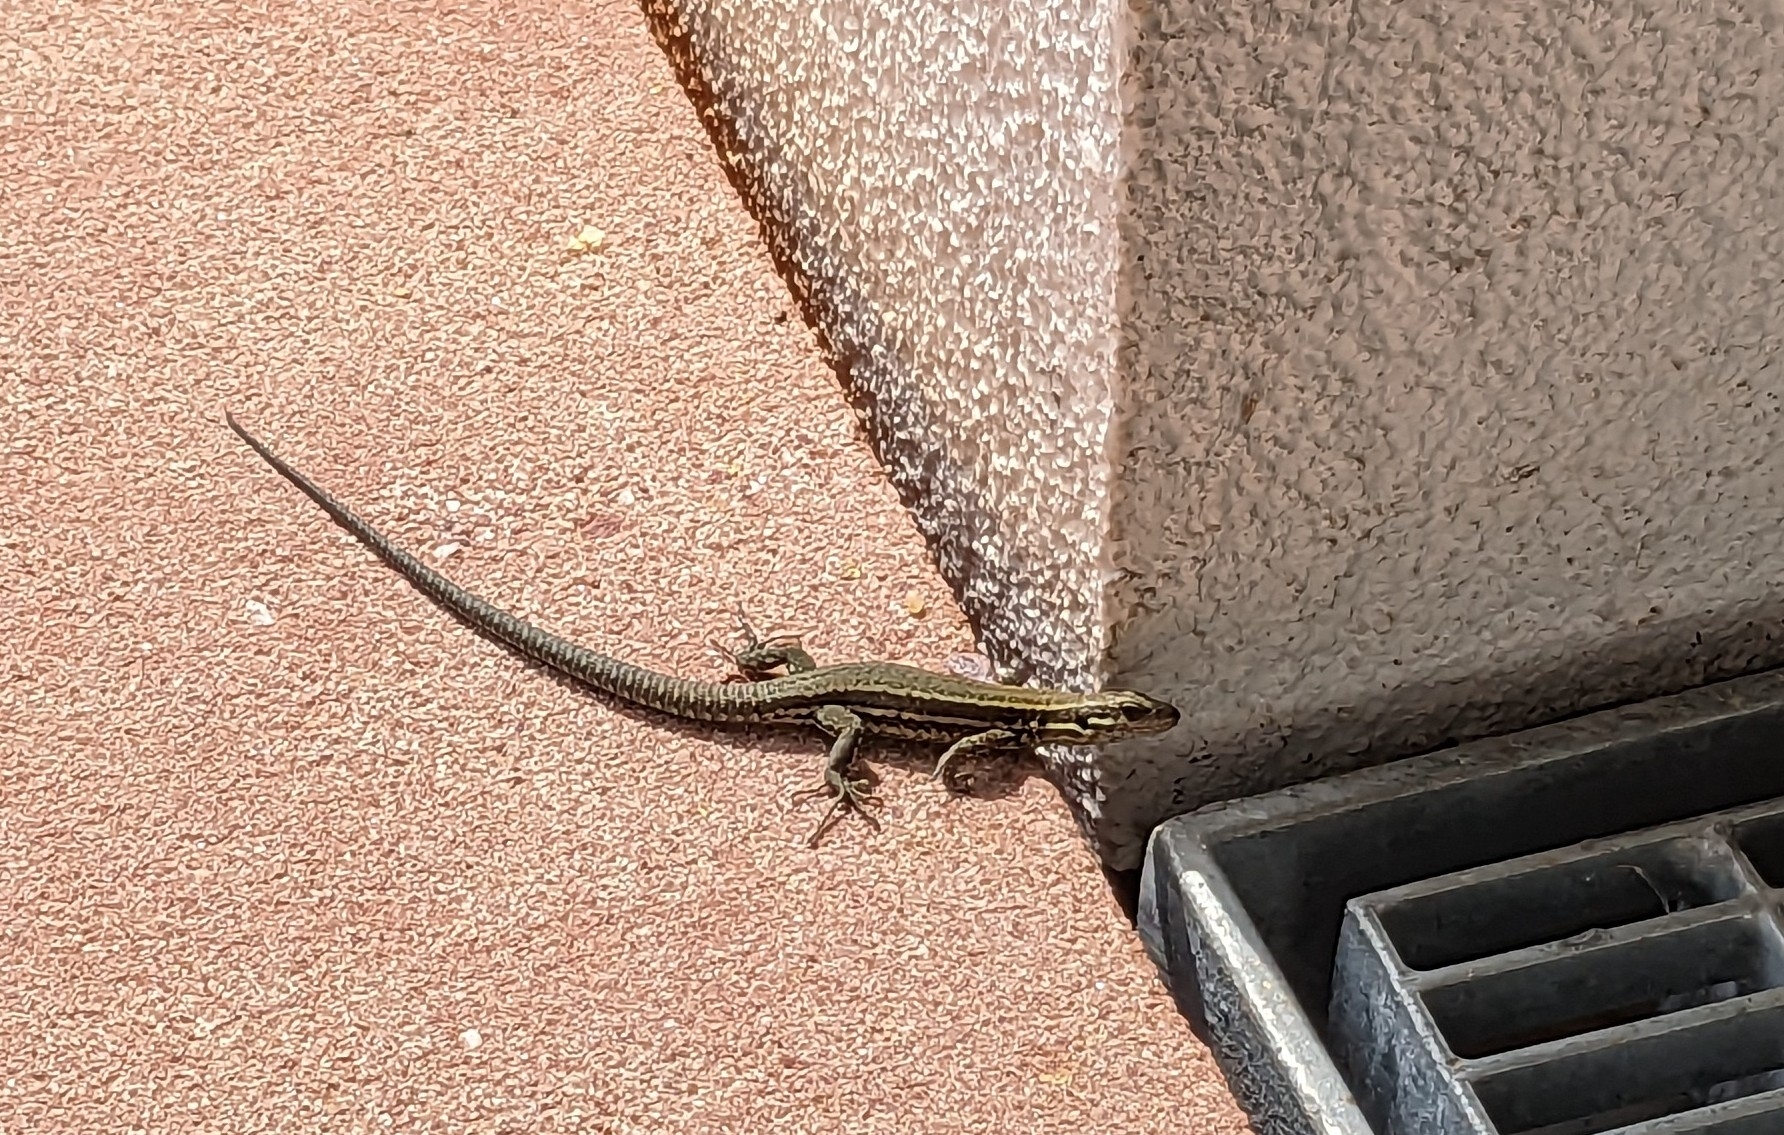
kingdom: Animalia
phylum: Chordata
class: Squamata
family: Lacertidae
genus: Podarcis
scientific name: Podarcis muralis
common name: Common wall lizard
